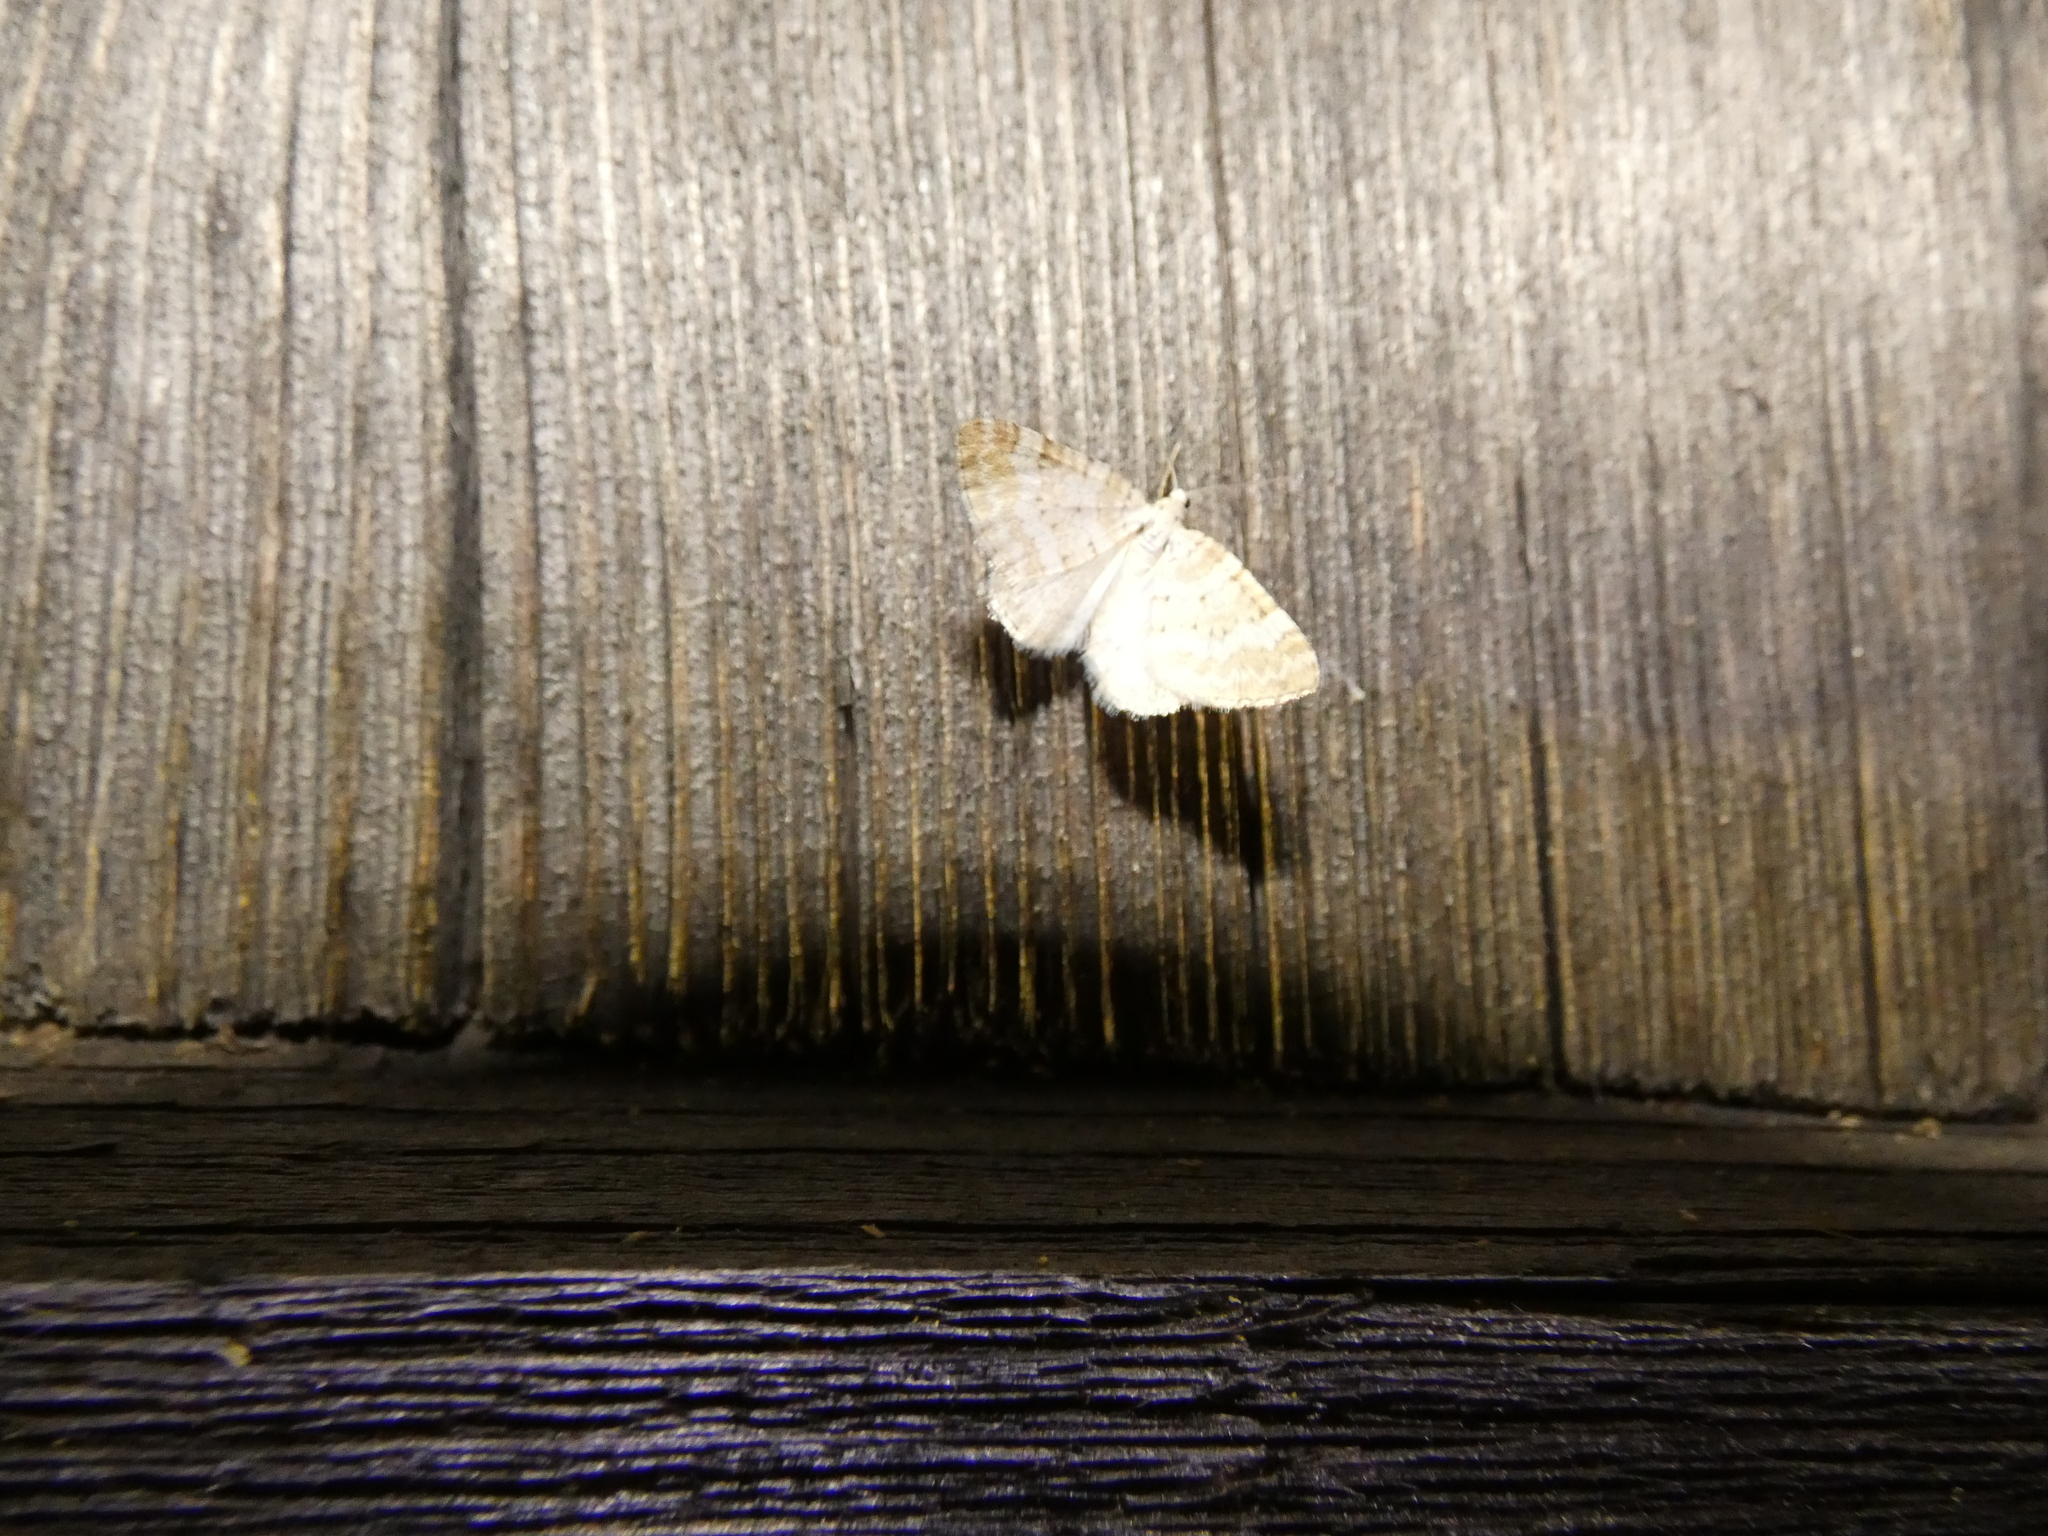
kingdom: Animalia
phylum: Arthropoda
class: Insecta
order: Lepidoptera
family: Geometridae
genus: Perizoma
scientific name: Perizoma albulata
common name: Grass rivulet
